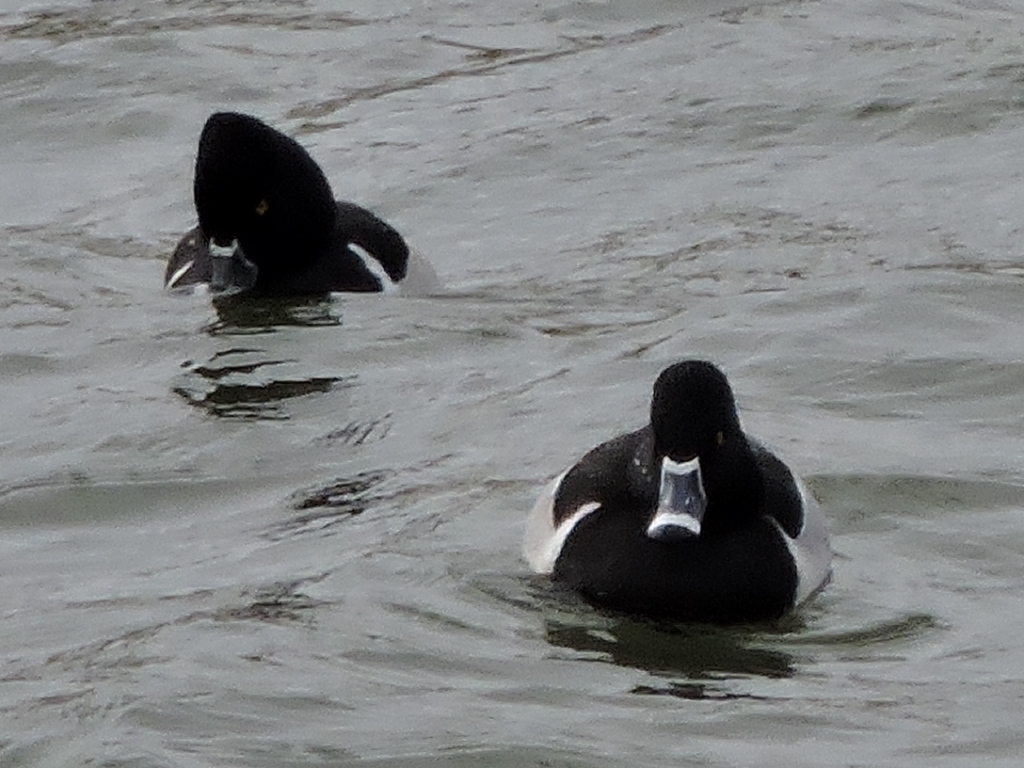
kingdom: Animalia
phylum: Chordata
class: Aves
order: Anseriformes
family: Anatidae
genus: Aythya
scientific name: Aythya collaris
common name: Ring-necked duck
